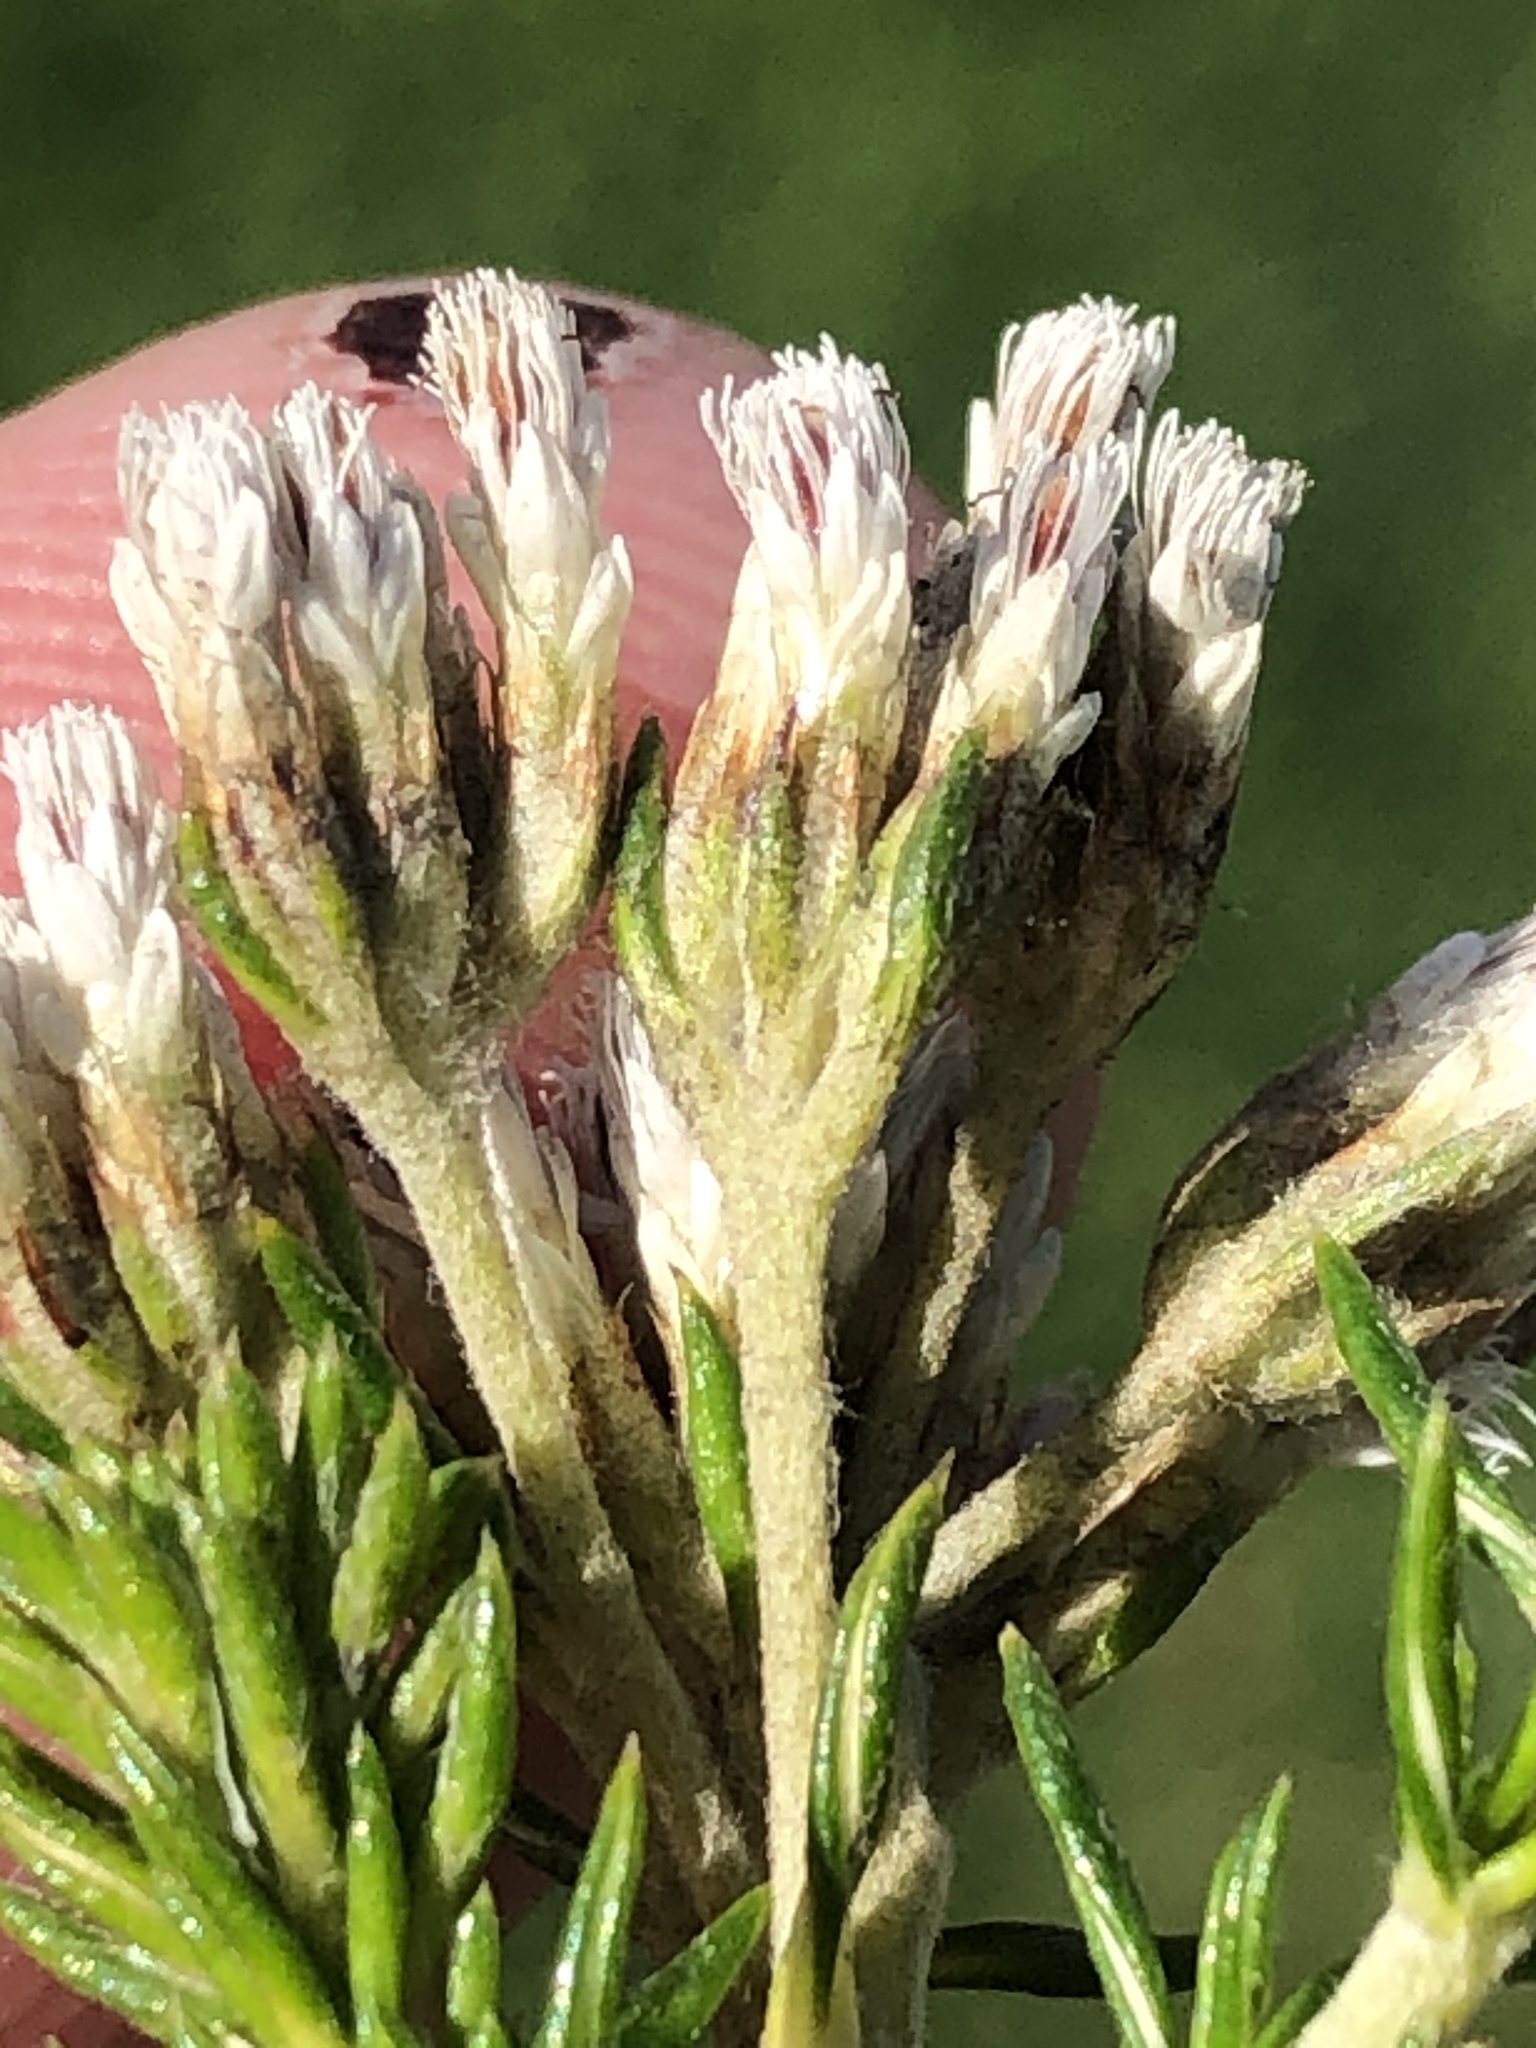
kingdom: Plantae
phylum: Tracheophyta
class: Magnoliopsida
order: Asterales
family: Asteraceae
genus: Metalasia
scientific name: Metalasia densa
